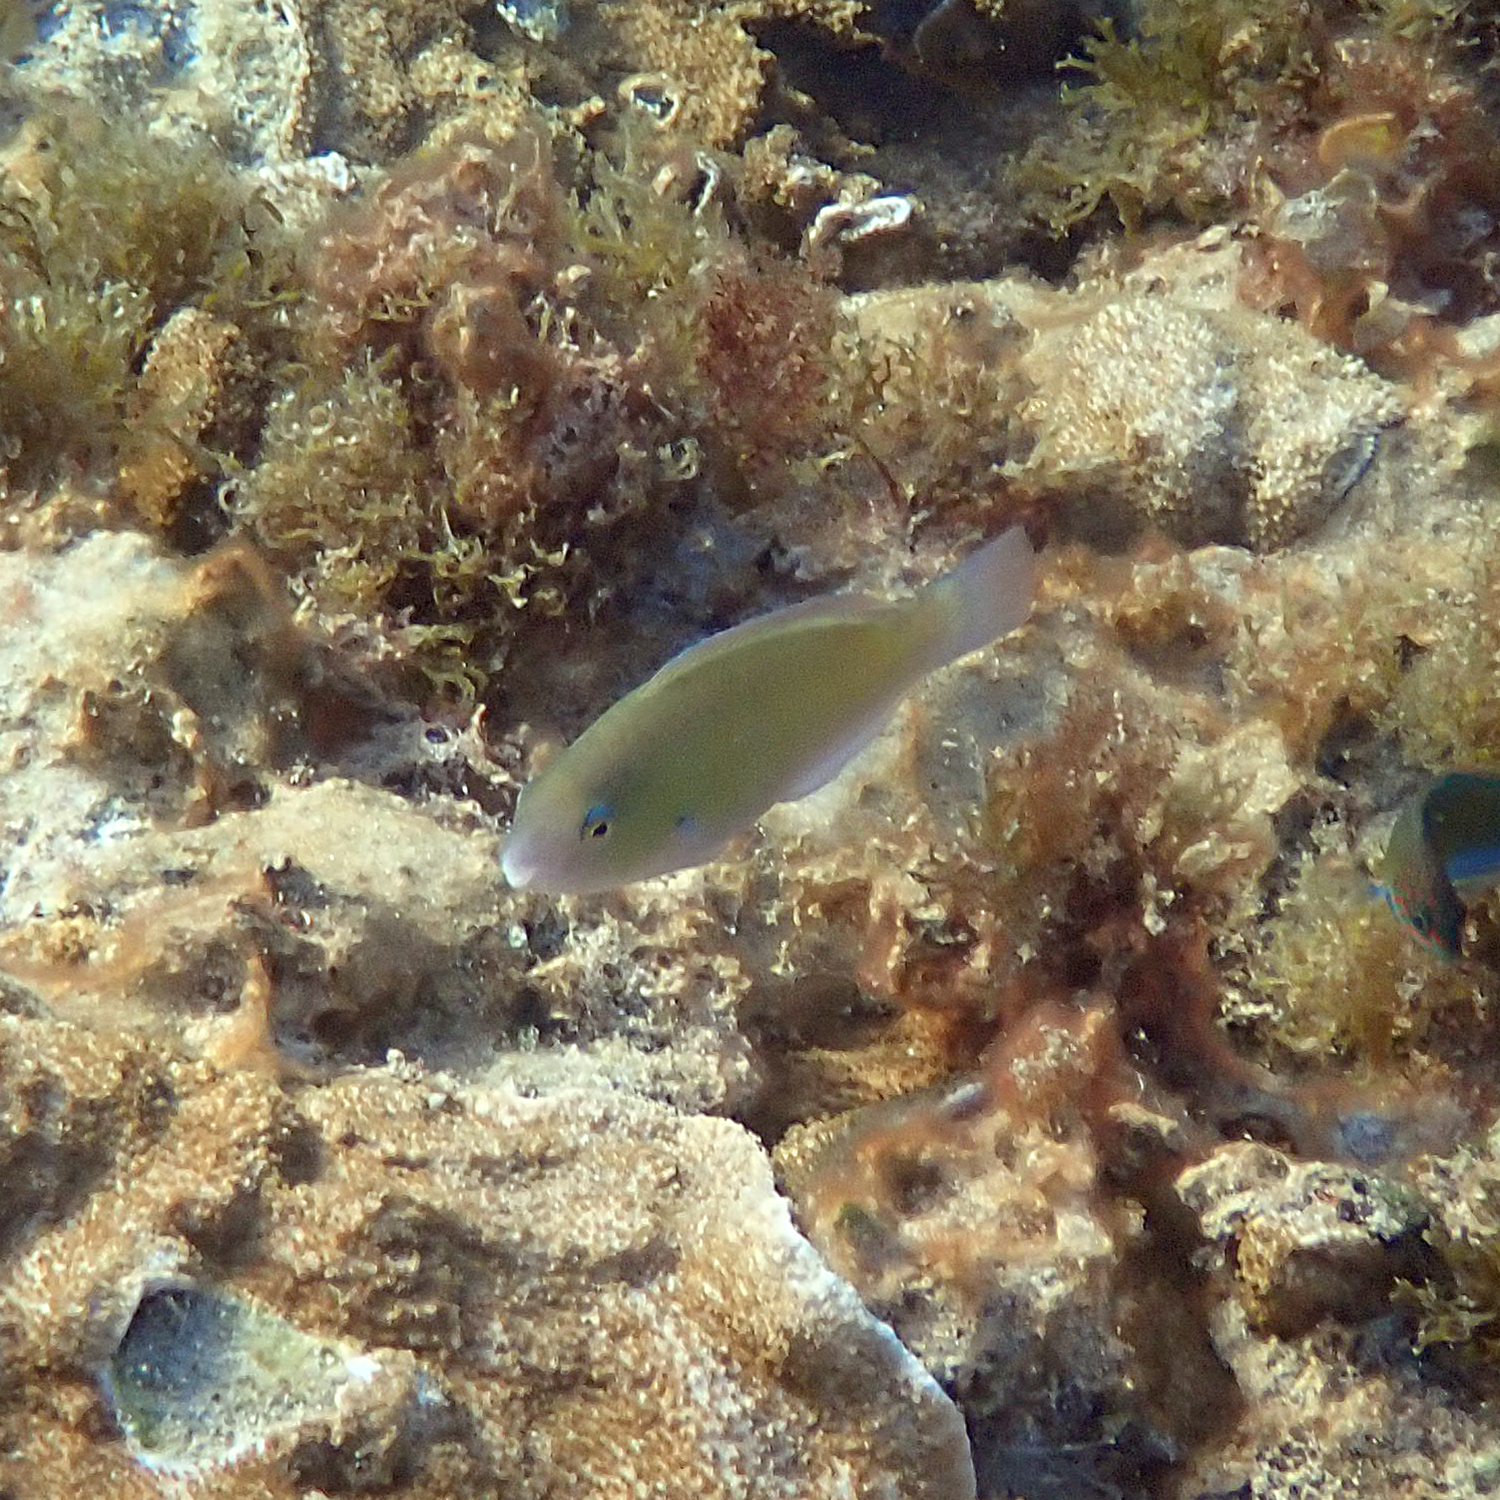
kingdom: Animalia
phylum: Chordata
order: Perciformes
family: Scaridae
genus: Scarus
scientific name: Scarus rivulatus
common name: Surf parrotfish
